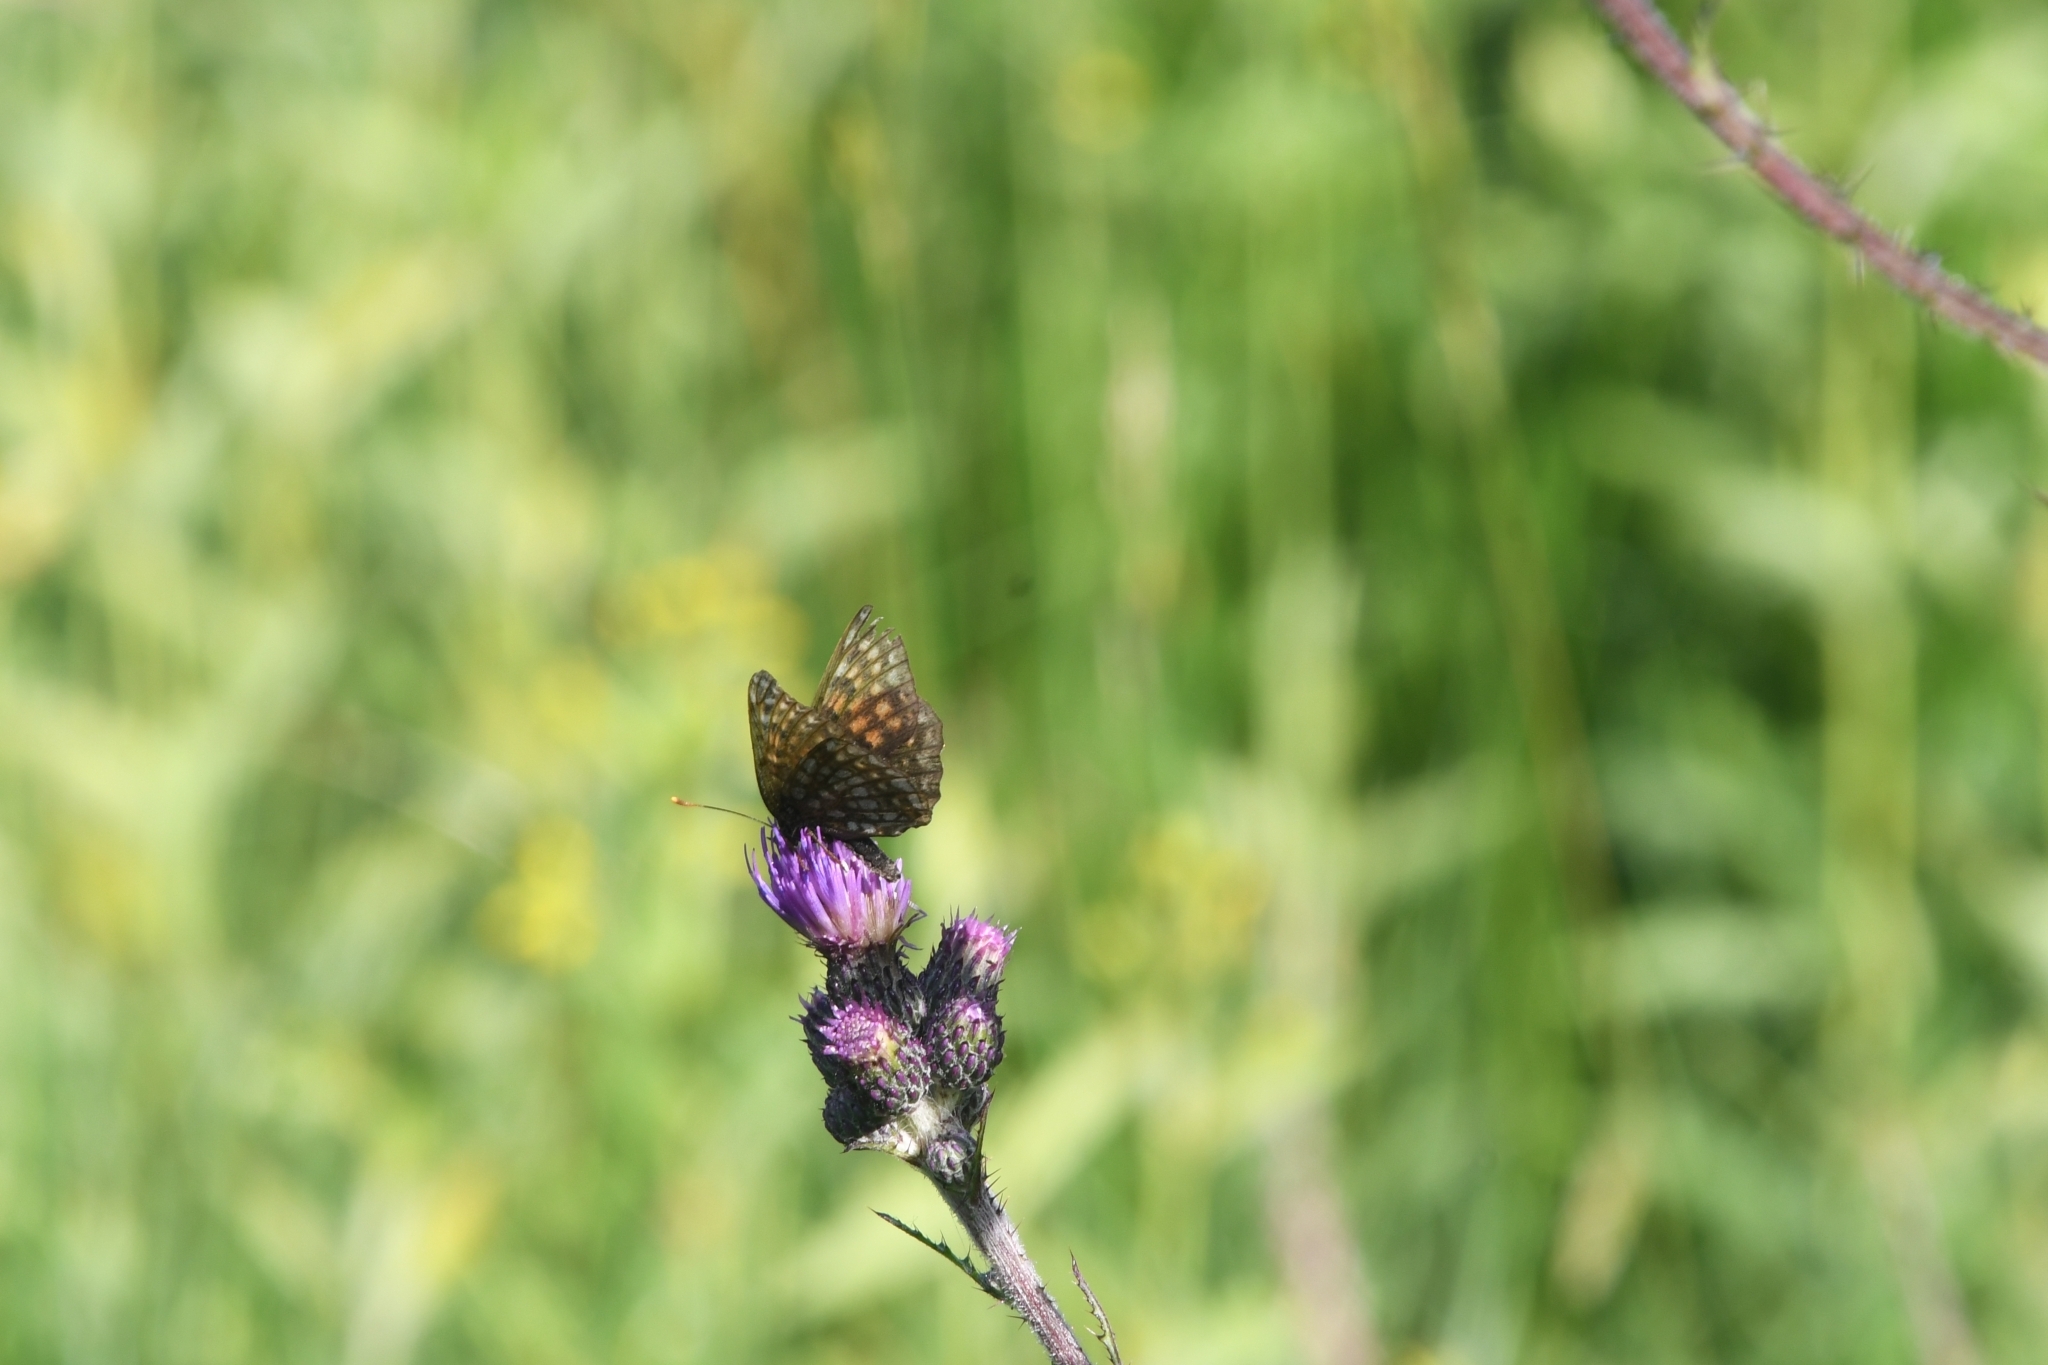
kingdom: Animalia
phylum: Arthropoda
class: Insecta
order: Lepidoptera
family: Nymphalidae
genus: Melitaea
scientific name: Melitaea diamina
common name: False heath fritillary
